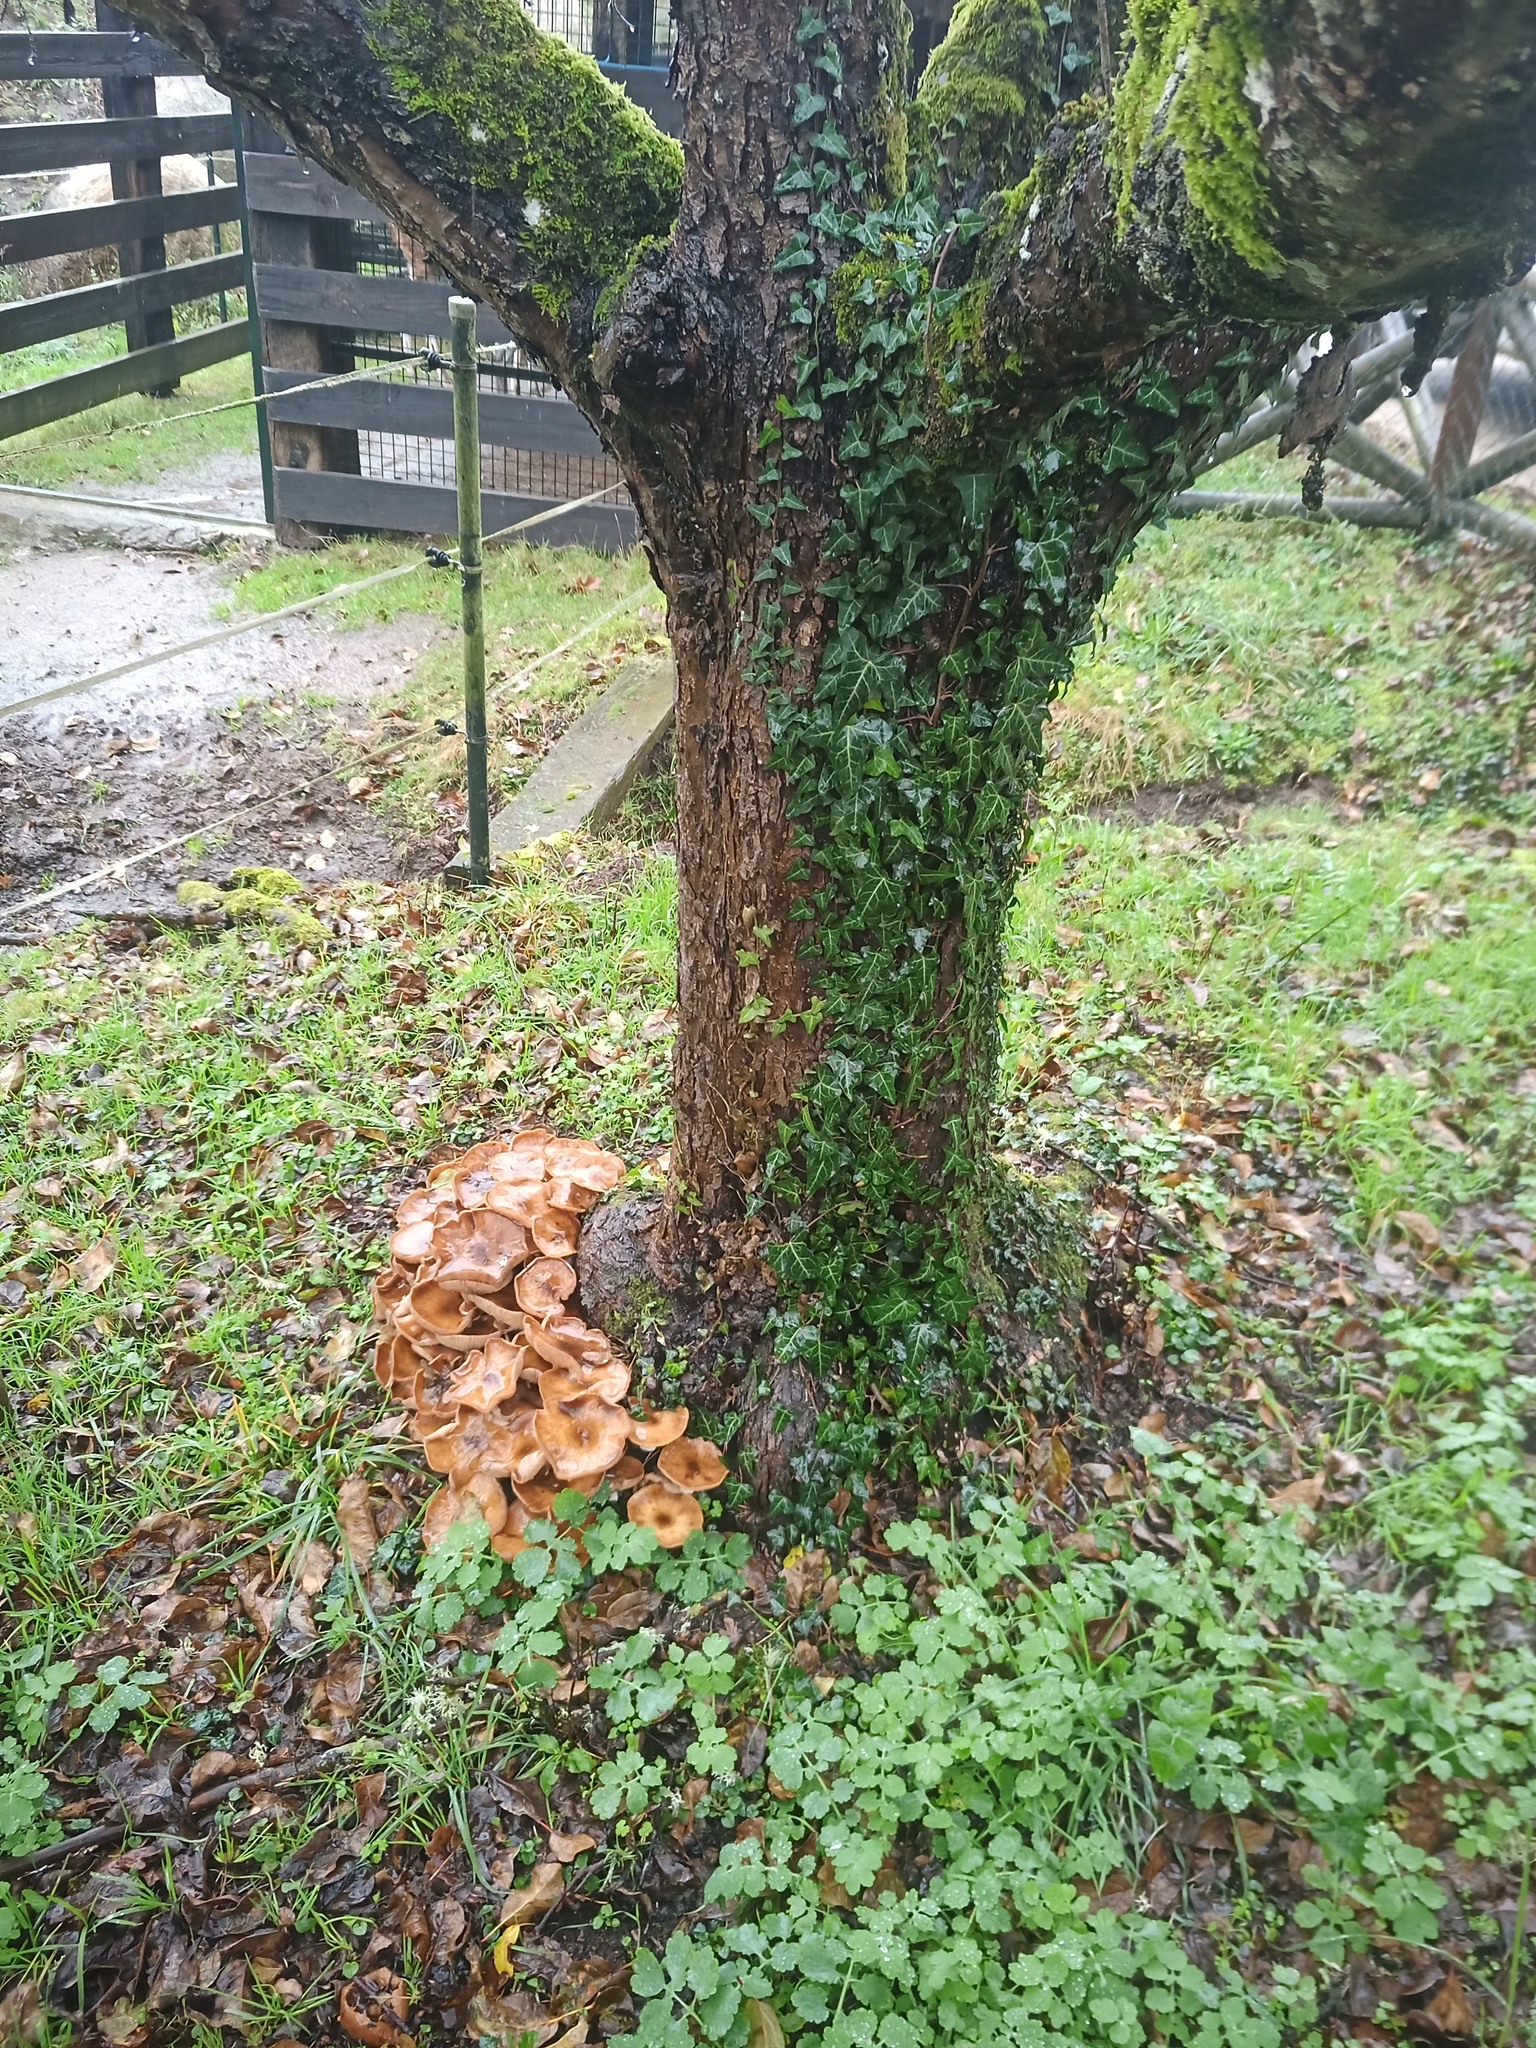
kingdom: Fungi
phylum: Basidiomycota
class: Agaricomycetes
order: Agaricales
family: Physalacriaceae
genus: Armillaria
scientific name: Armillaria mellea
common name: Honey fungus
